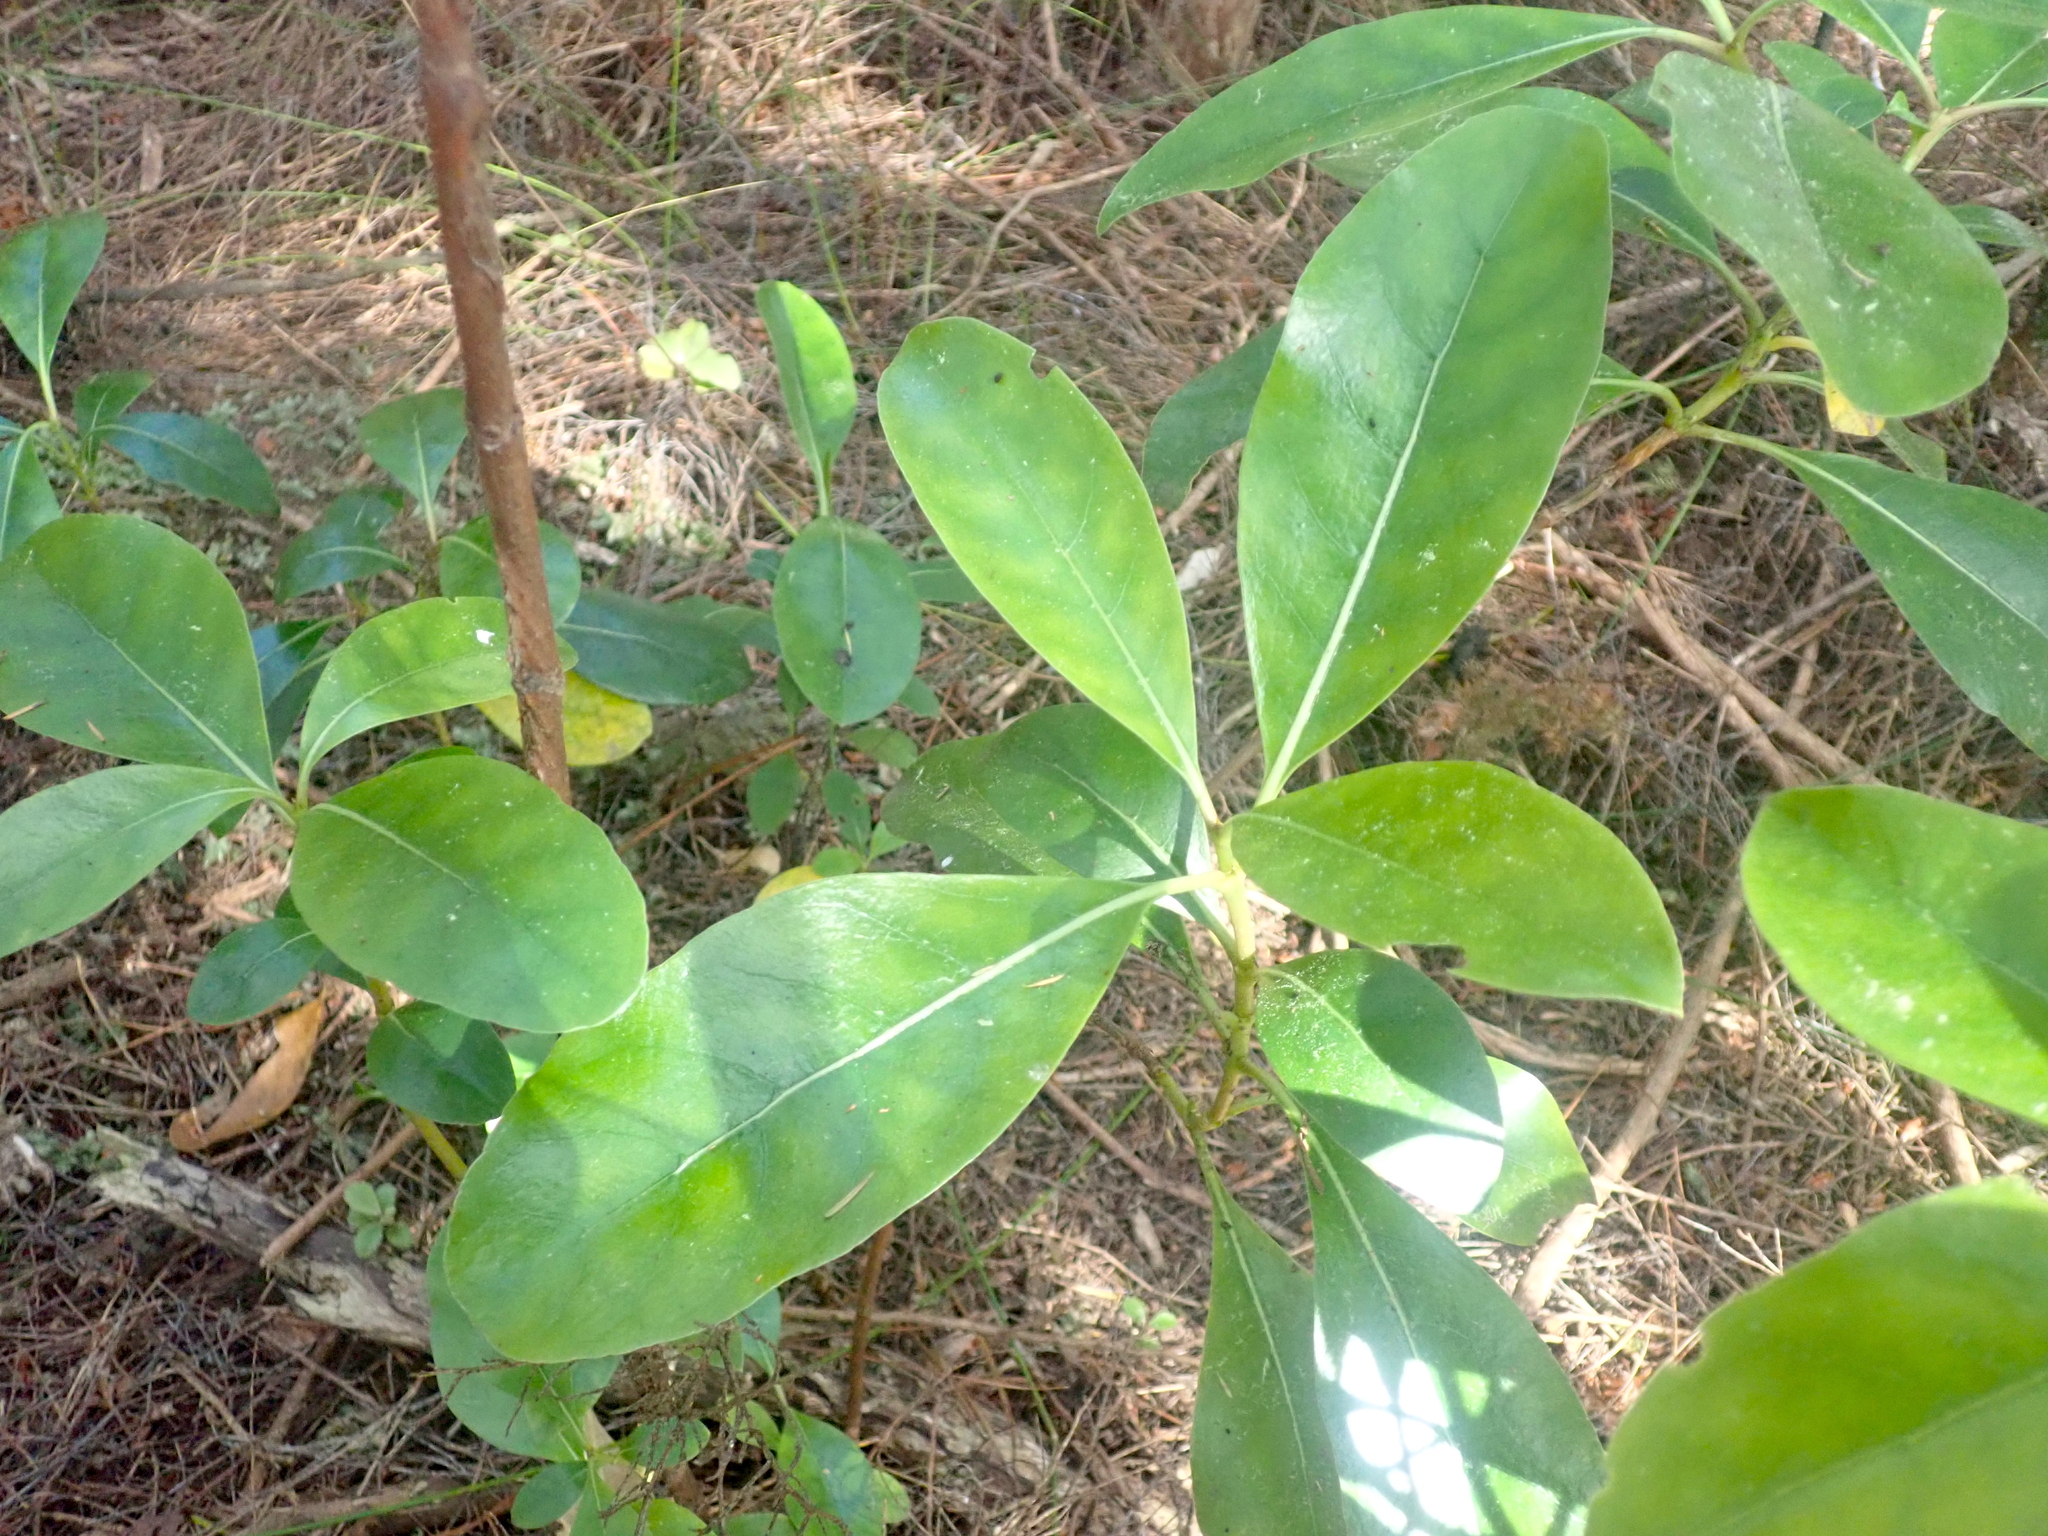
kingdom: Plantae
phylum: Tracheophyta
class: Magnoliopsida
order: Gentianales
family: Rubiaceae
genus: Coprosma
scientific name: Coprosma lucida
